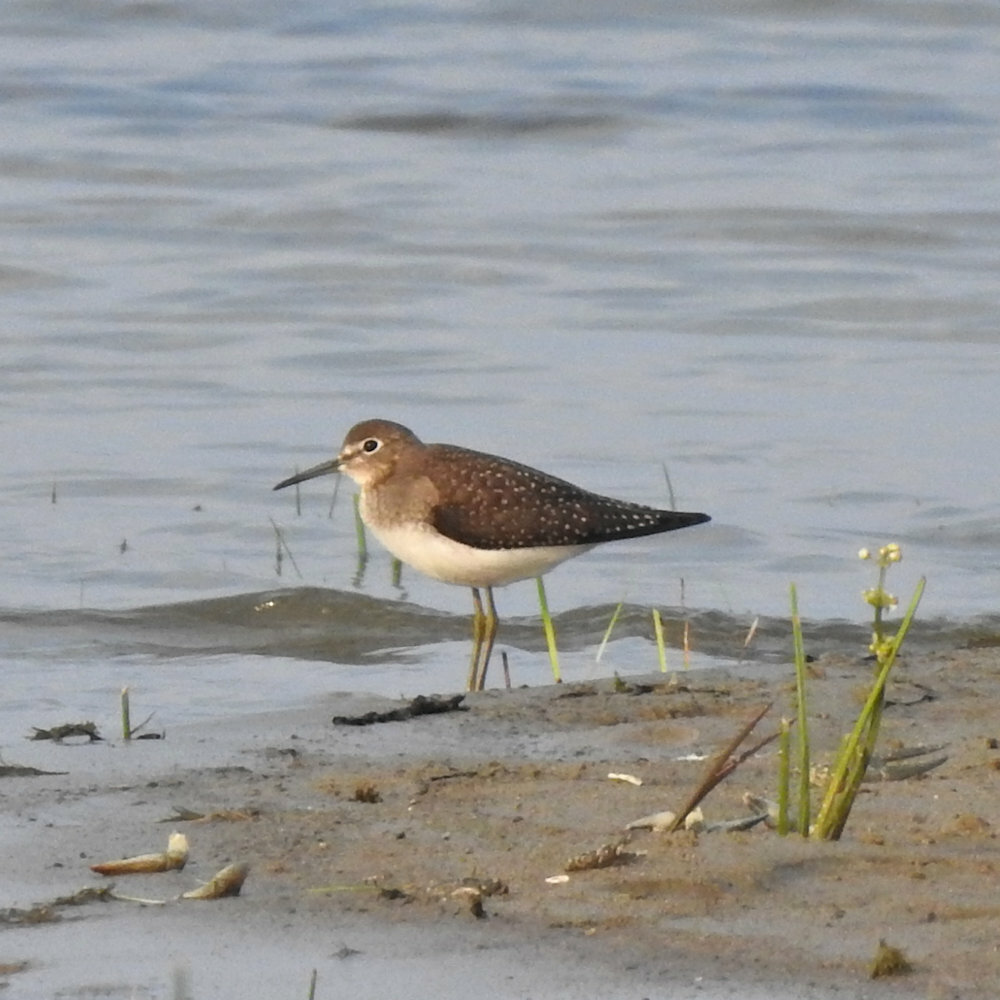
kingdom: Animalia
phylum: Chordata
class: Aves
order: Charadriiformes
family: Scolopacidae
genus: Tringa
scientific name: Tringa solitaria
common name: Solitary sandpiper
